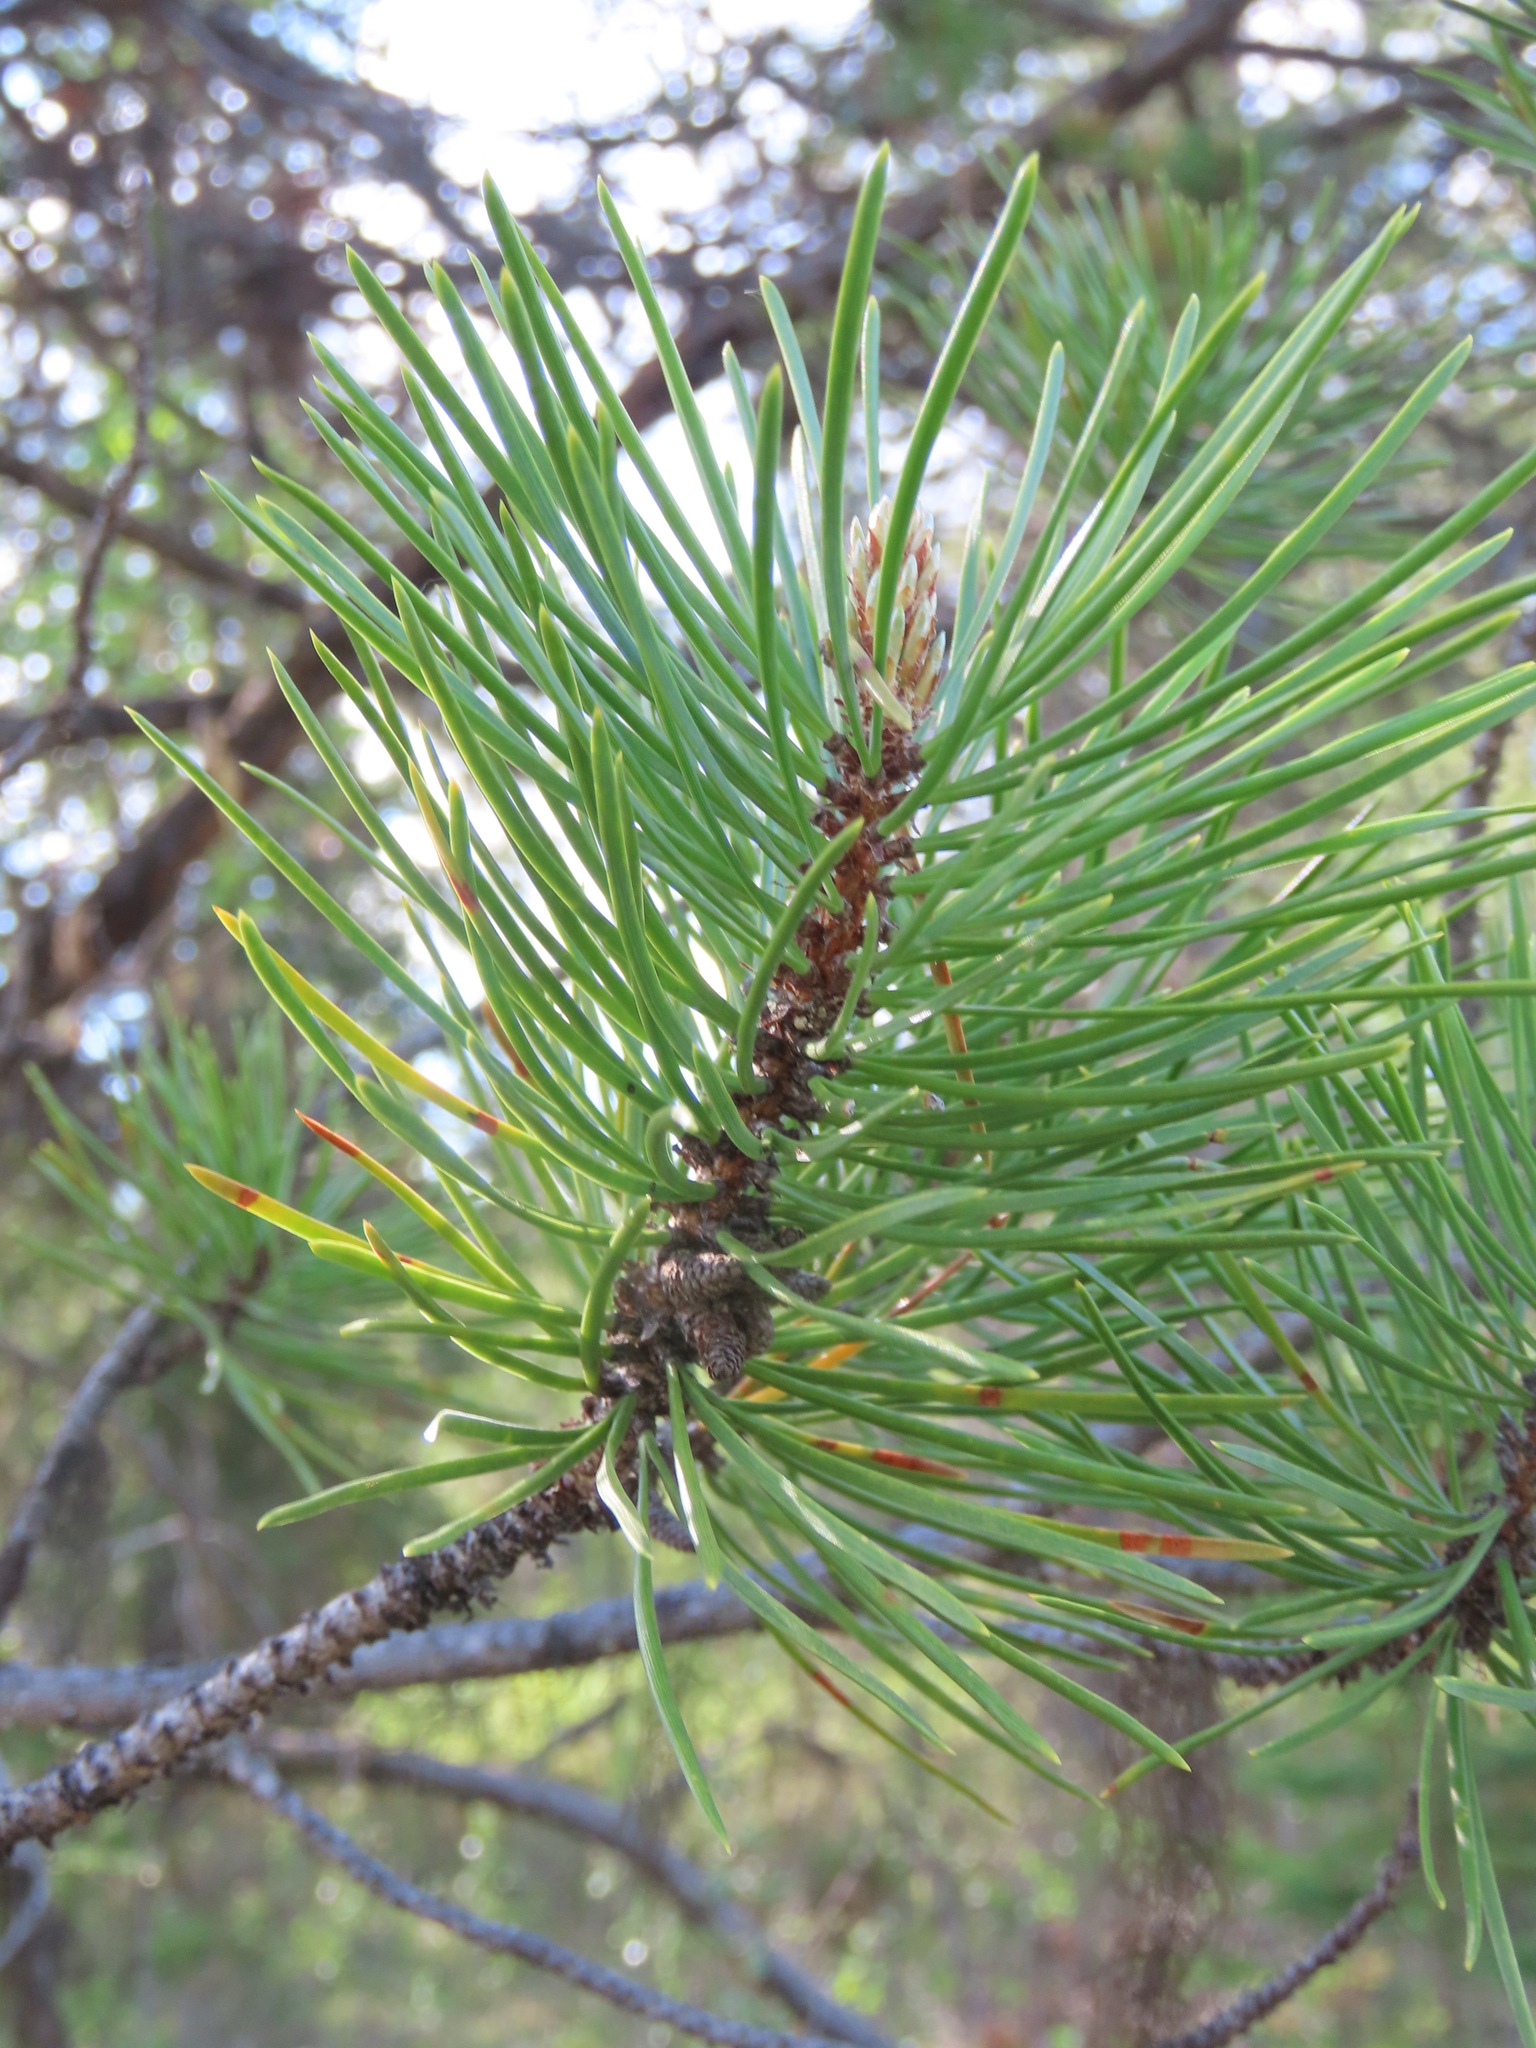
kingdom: Plantae
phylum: Tracheophyta
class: Pinopsida
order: Pinales
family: Pinaceae
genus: Pinus
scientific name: Pinus contorta
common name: Lodgepole pine
